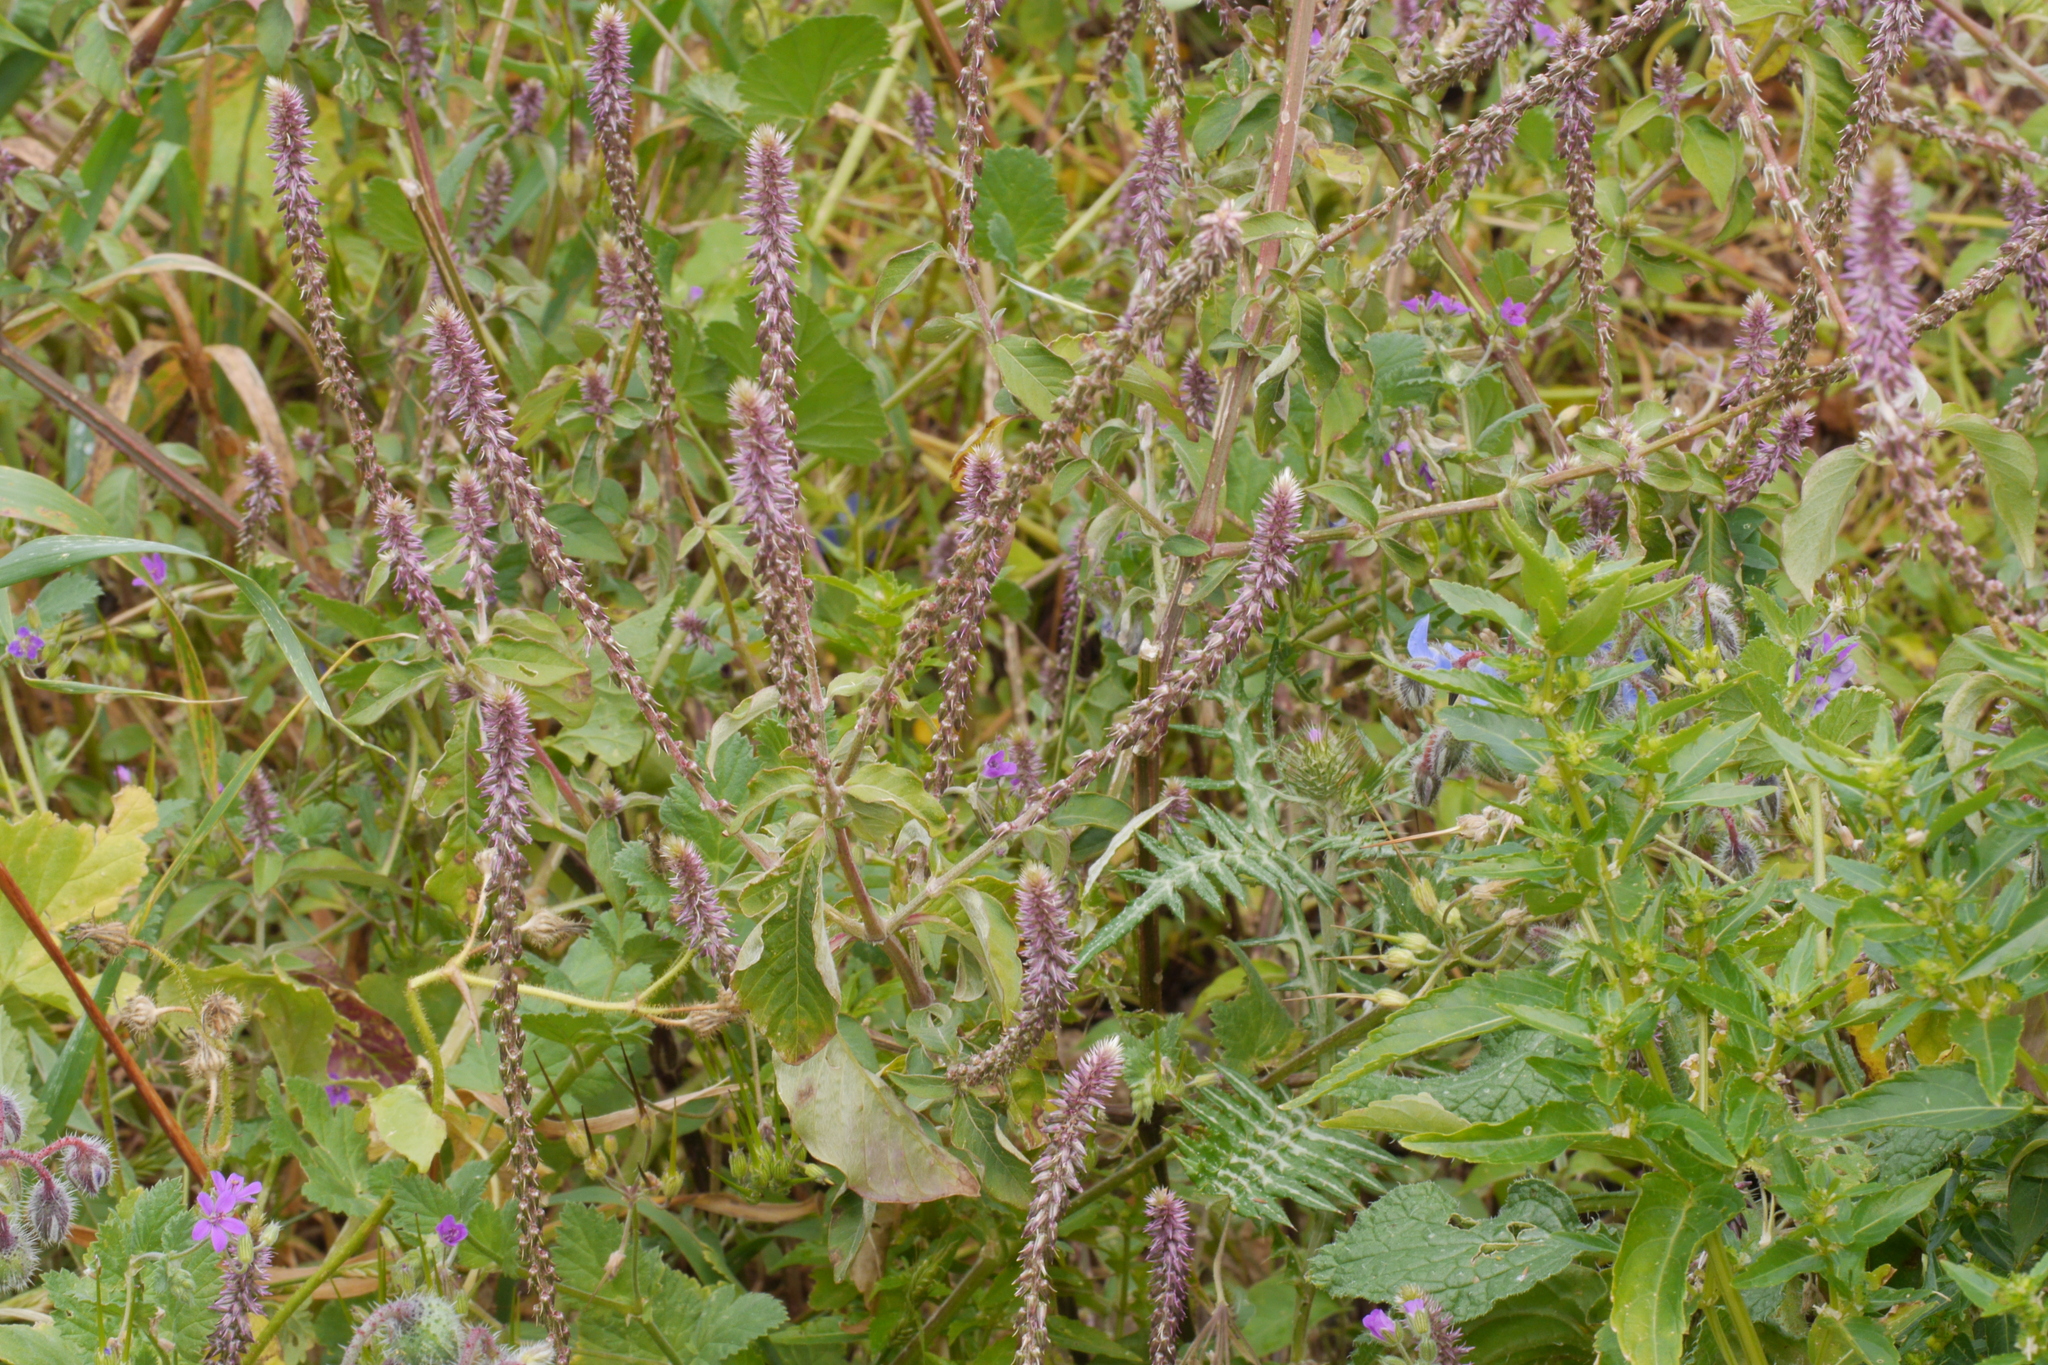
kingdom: Plantae
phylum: Tracheophyta
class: Magnoliopsida
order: Caryophyllales
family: Amaranthaceae
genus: Achyranthes
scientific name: Achyranthes aspera
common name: Devil's horsewhip
